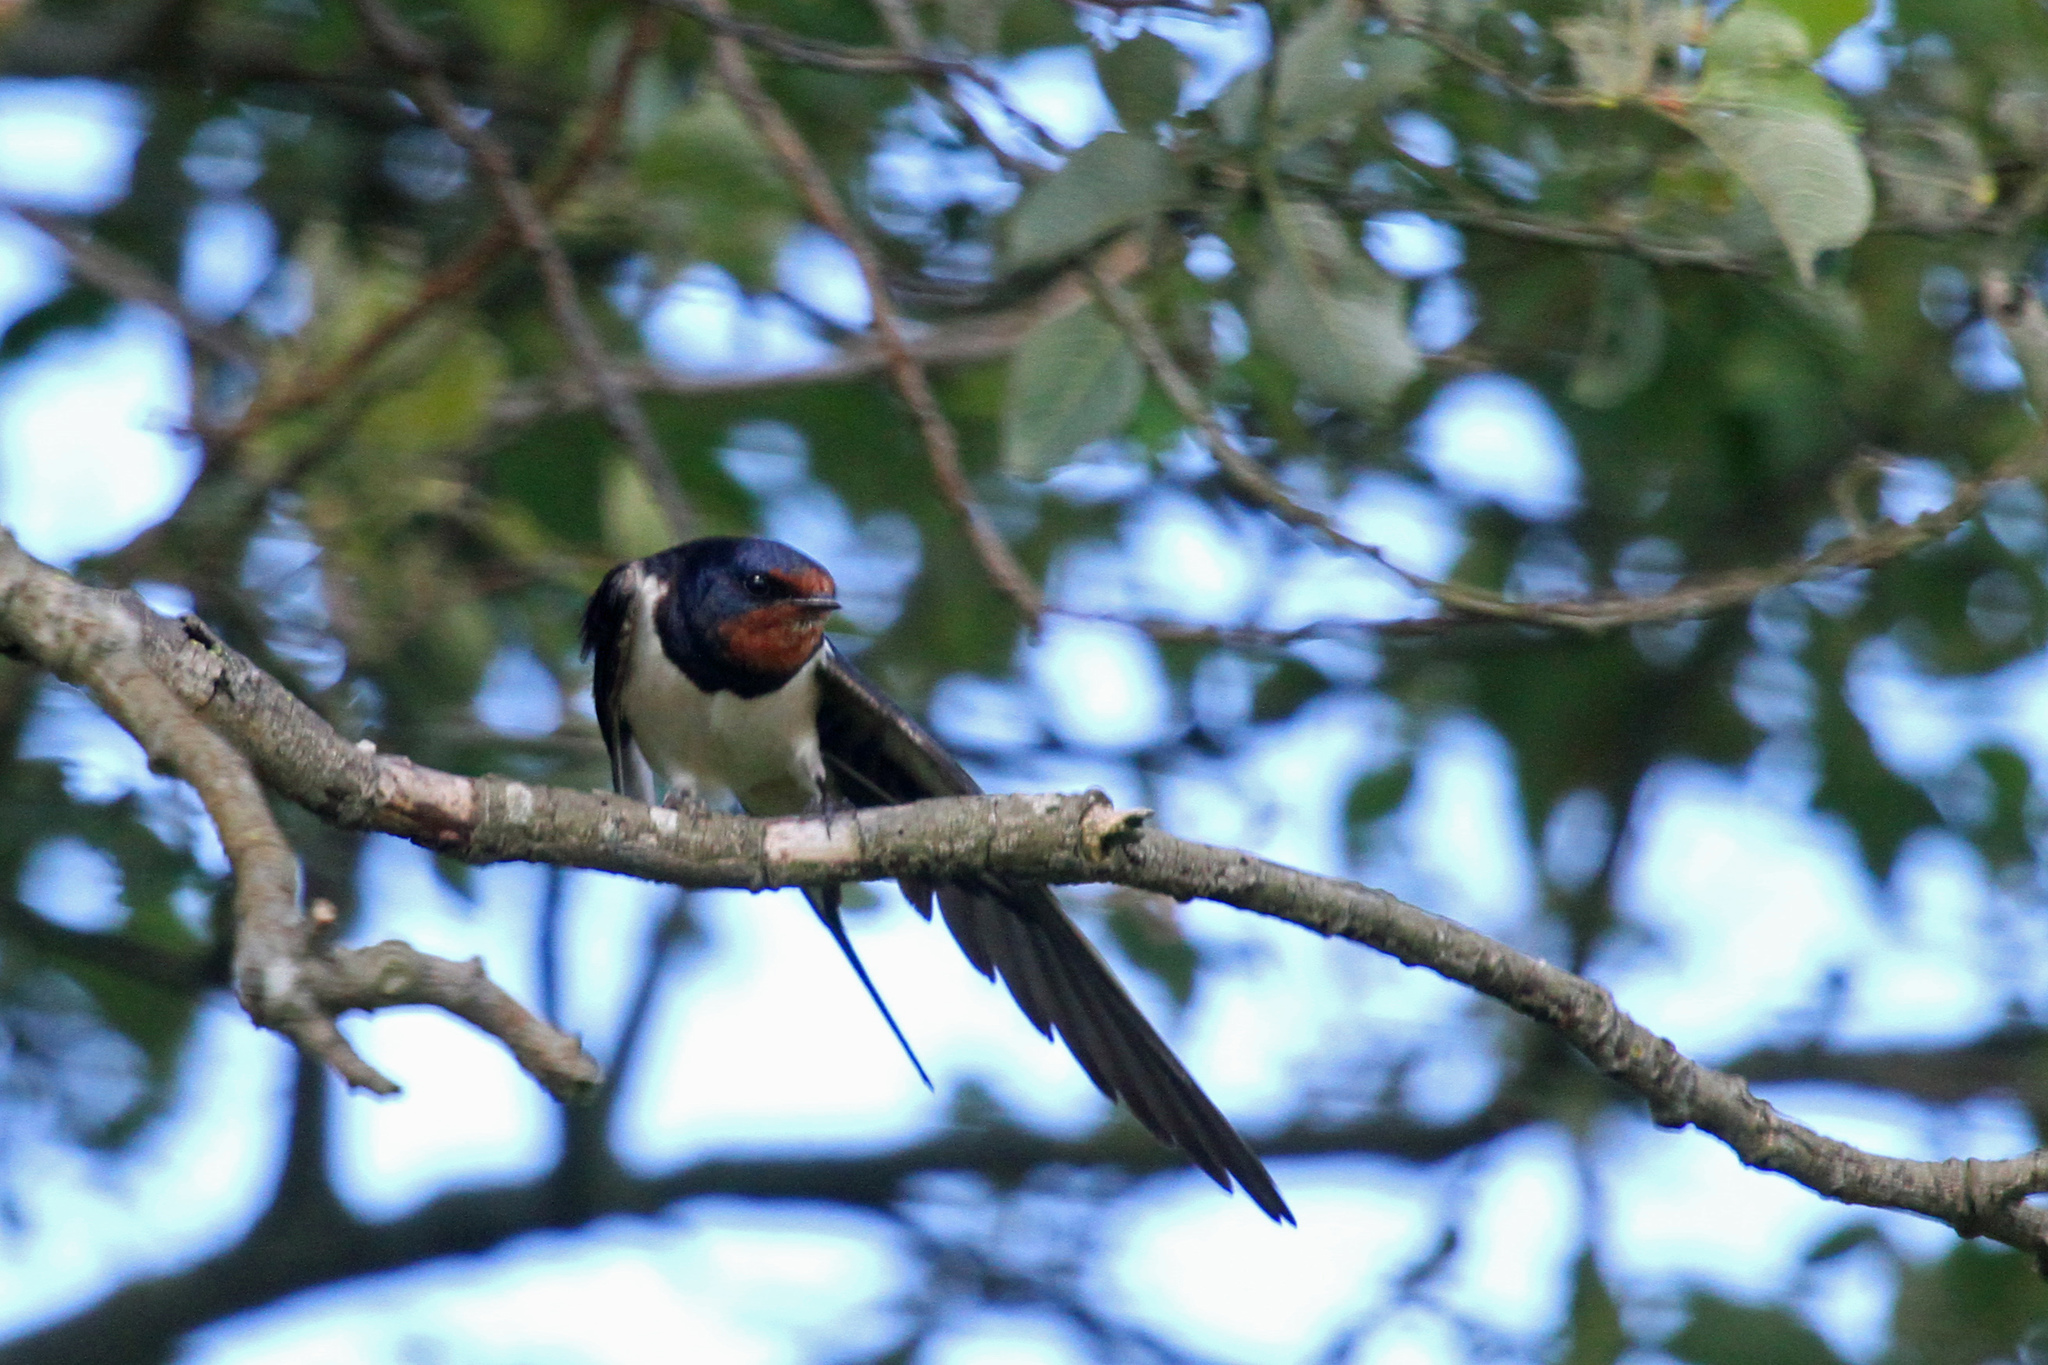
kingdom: Animalia
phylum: Chordata
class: Aves
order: Passeriformes
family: Hirundinidae
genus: Hirundo
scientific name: Hirundo rustica
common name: Barn swallow
